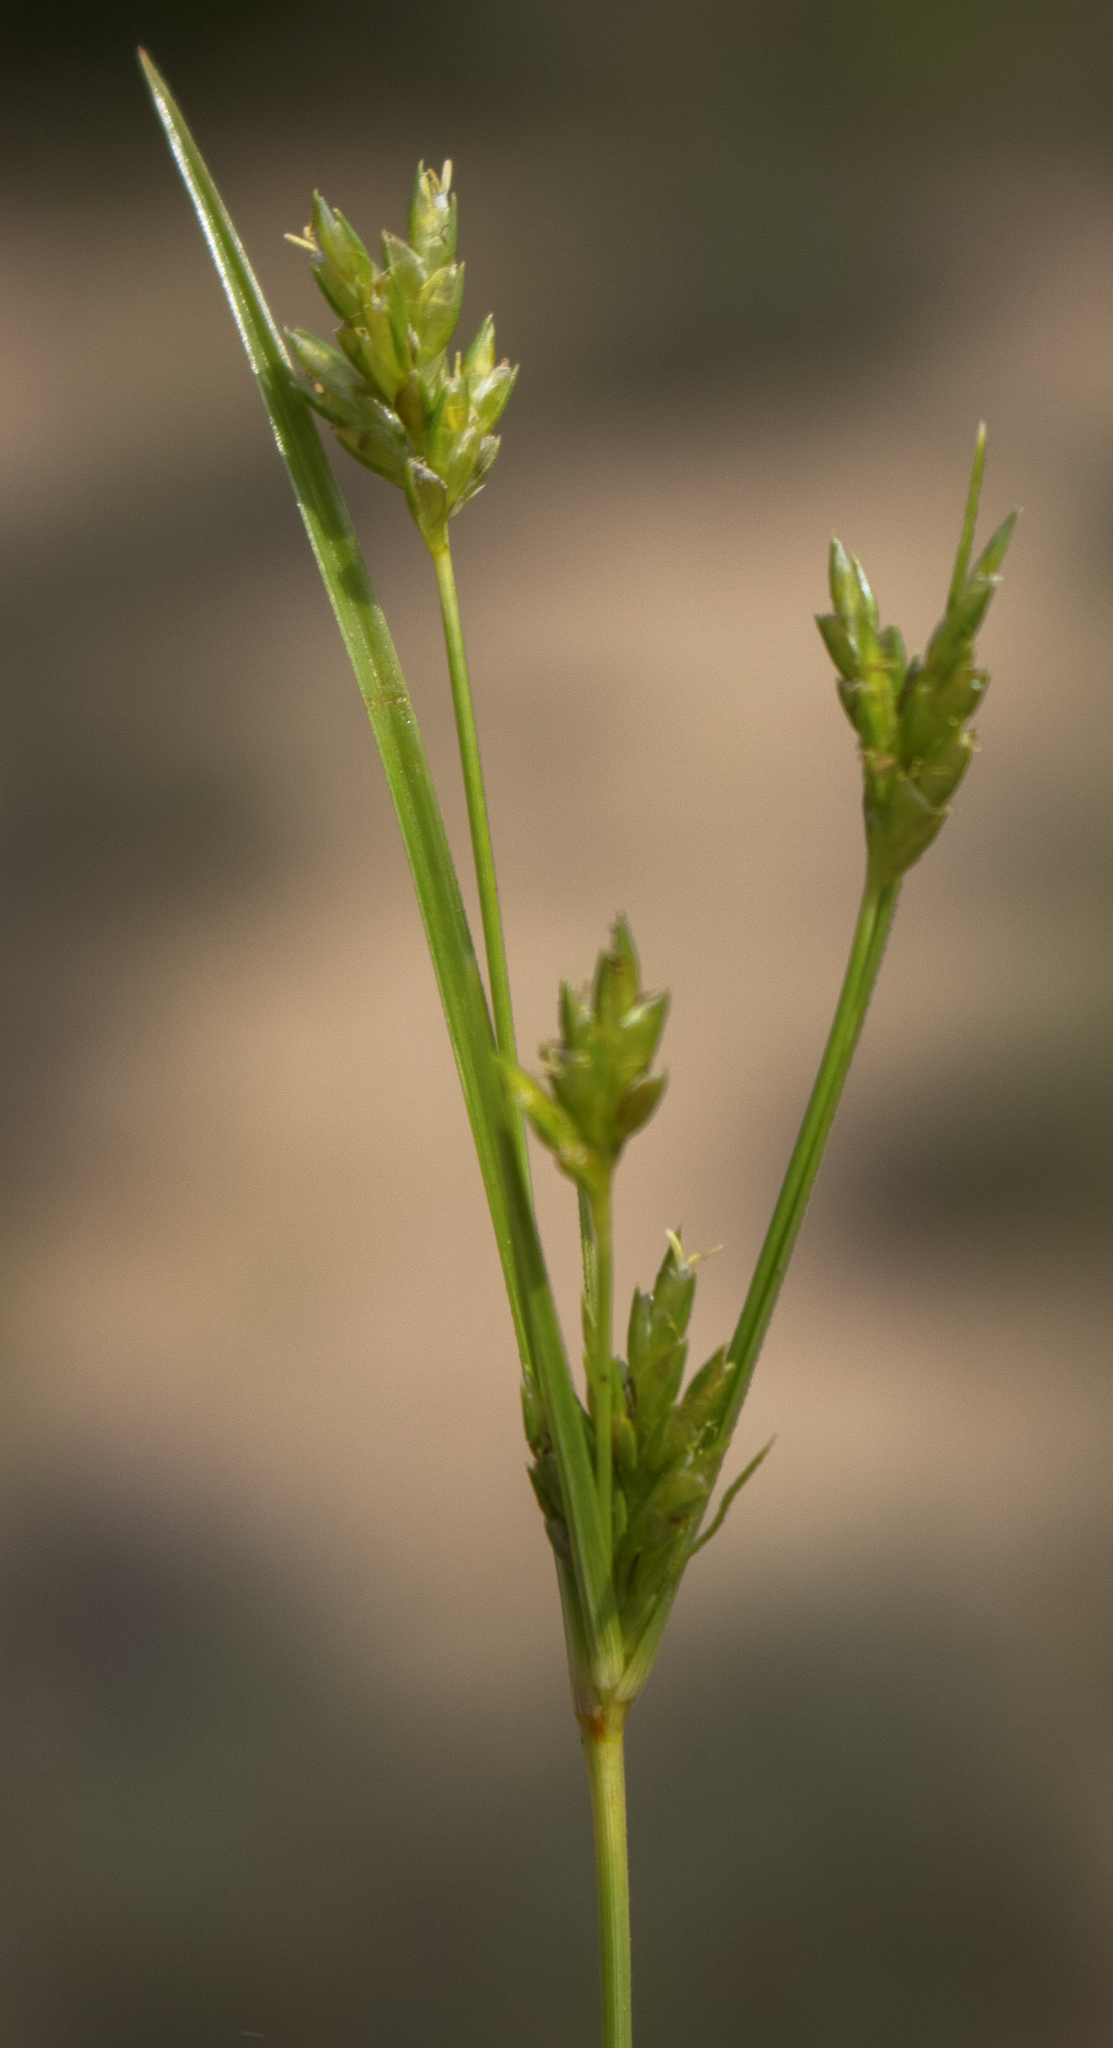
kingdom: Plantae
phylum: Tracheophyta
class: Liliopsida
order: Poales
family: Cyperaceae
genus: Cyperus
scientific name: Cyperus schweinitzii
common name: Schweinitz's cyperus
